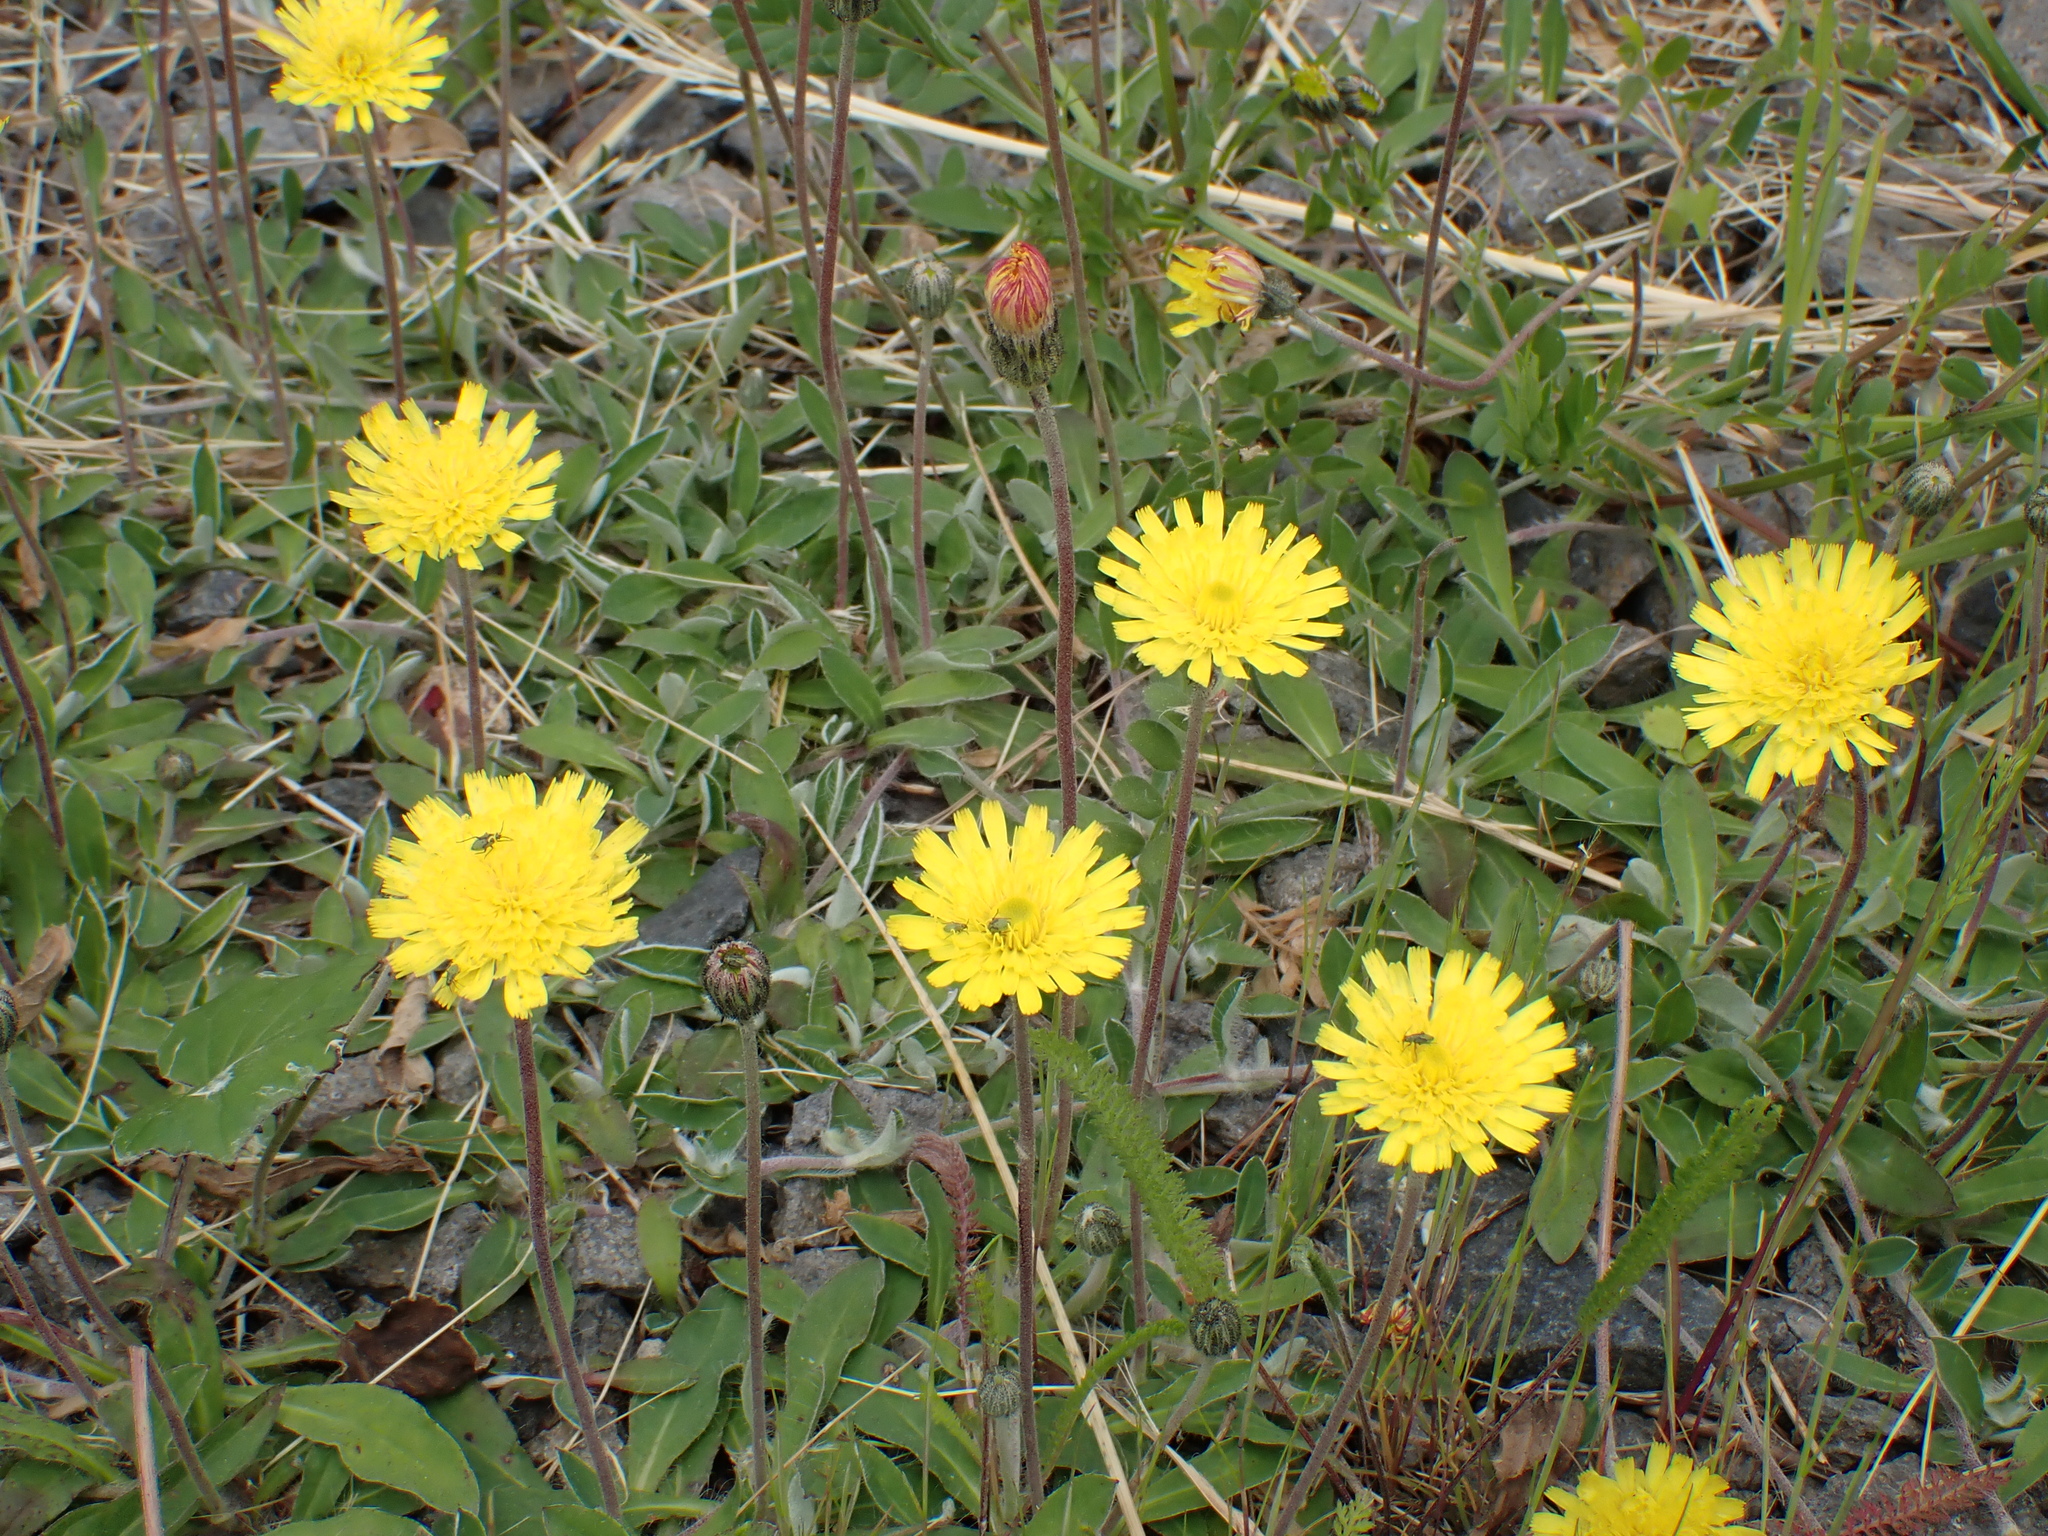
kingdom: Plantae
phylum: Tracheophyta
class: Magnoliopsida
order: Asterales
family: Asteraceae
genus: Pilosella
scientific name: Pilosella officinarum
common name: Mouse-ear hawkweed
